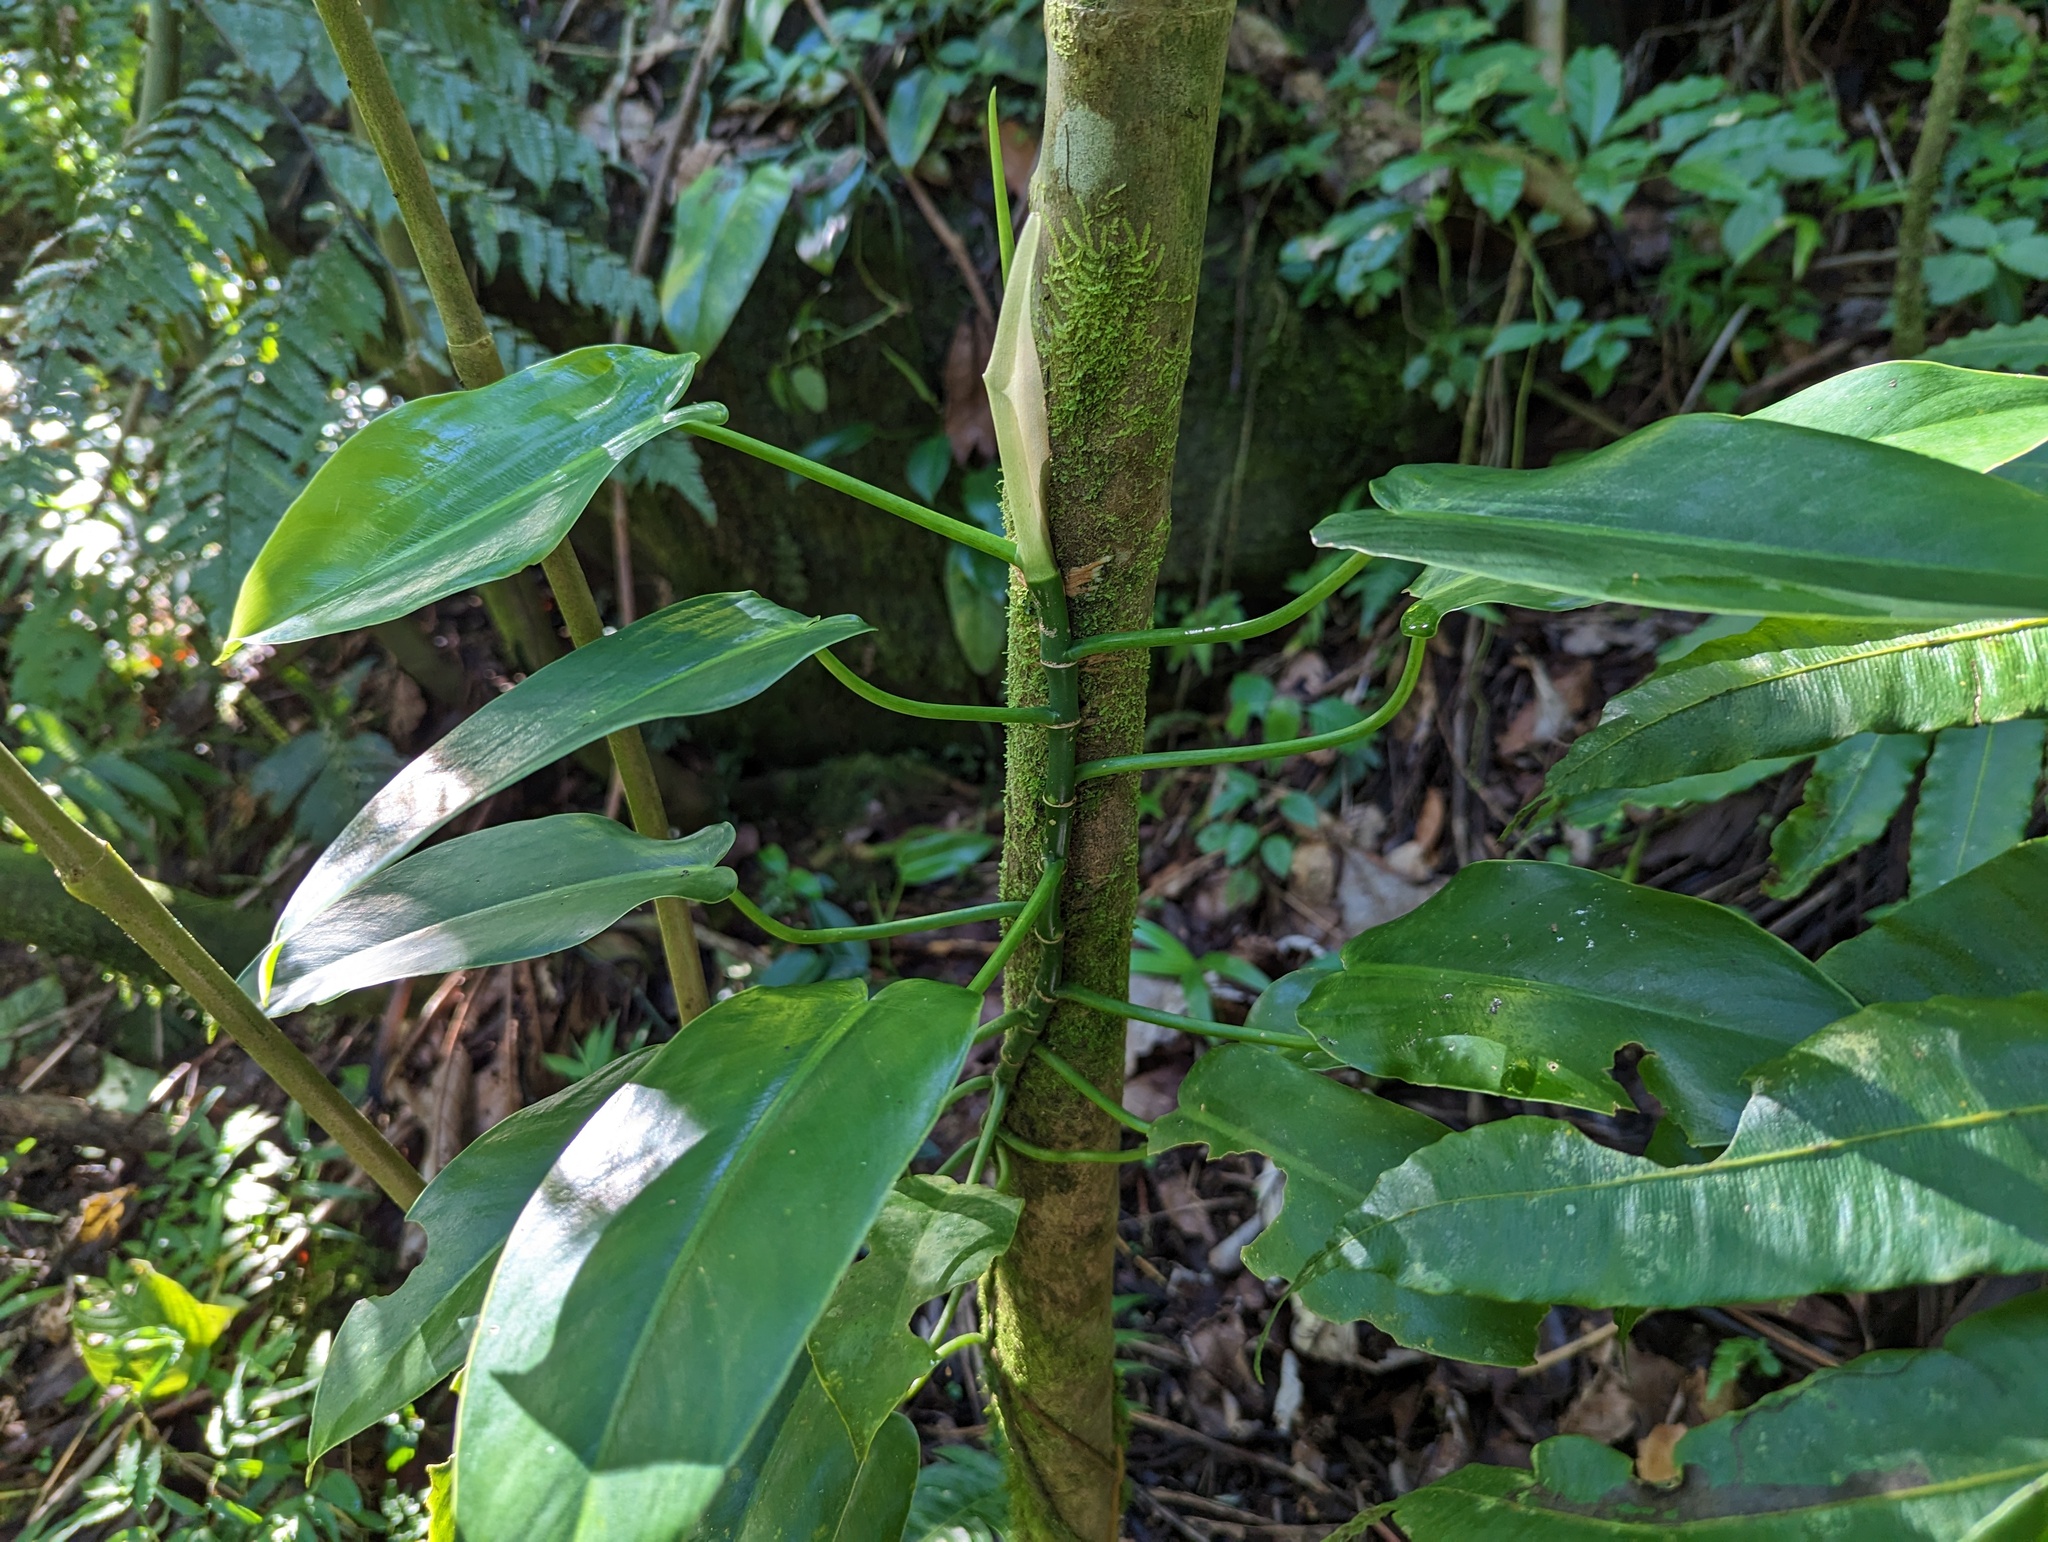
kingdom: Plantae
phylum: Tracheophyta
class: Liliopsida
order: Alismatales
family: Araceae
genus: Philodendron
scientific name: Philodendron consanguineum
